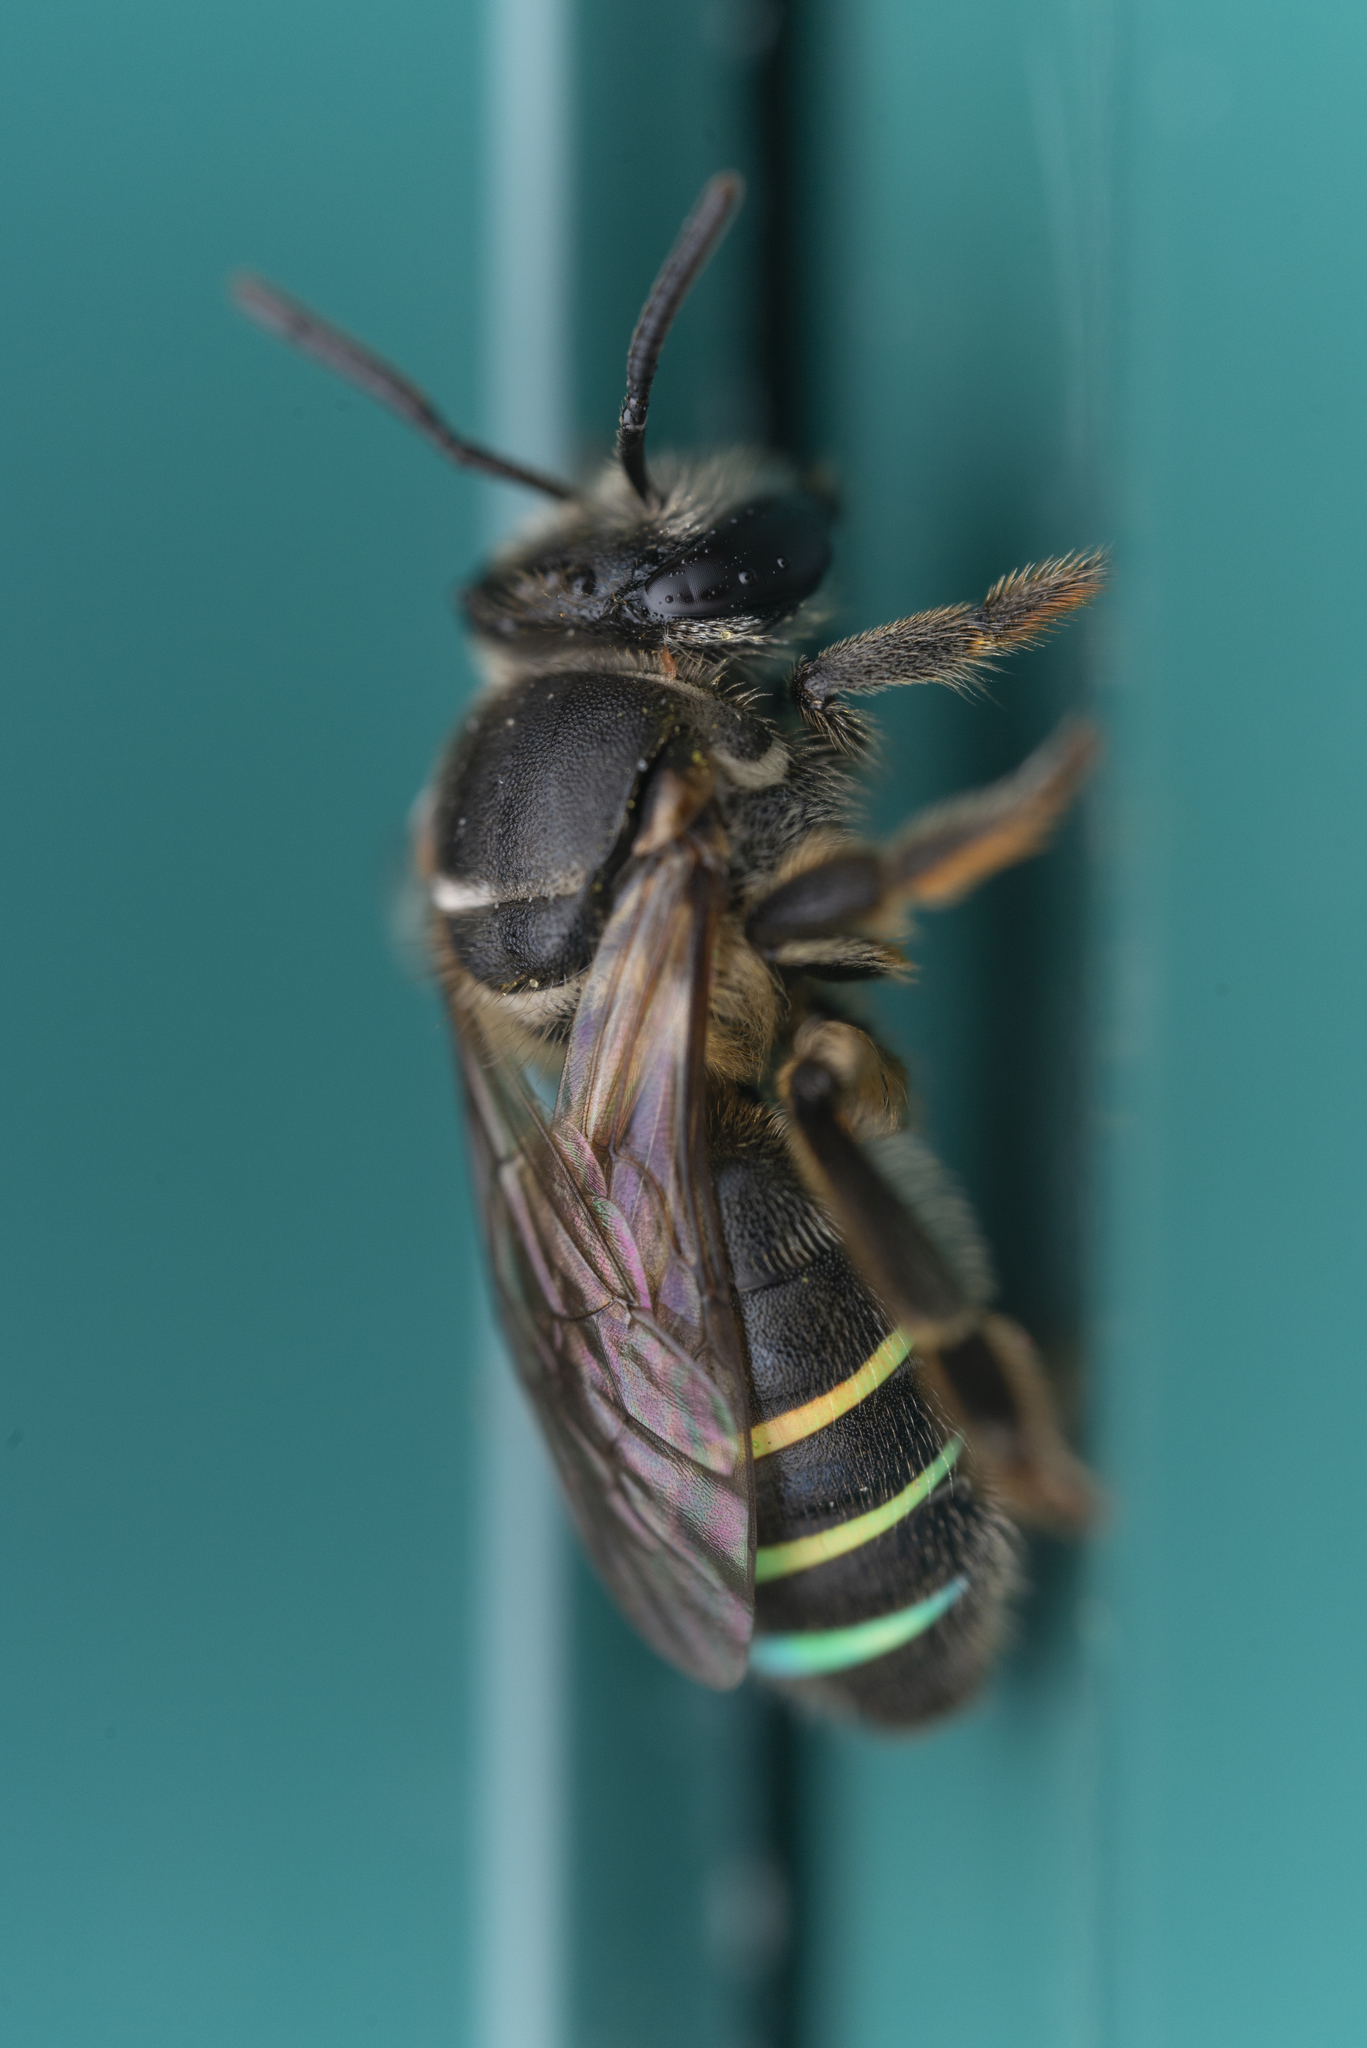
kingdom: Animalia
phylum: Arthropoda
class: Insecta
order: Hymenoptera
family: Halictidae
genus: Nomia
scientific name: Nomia chalybeata
